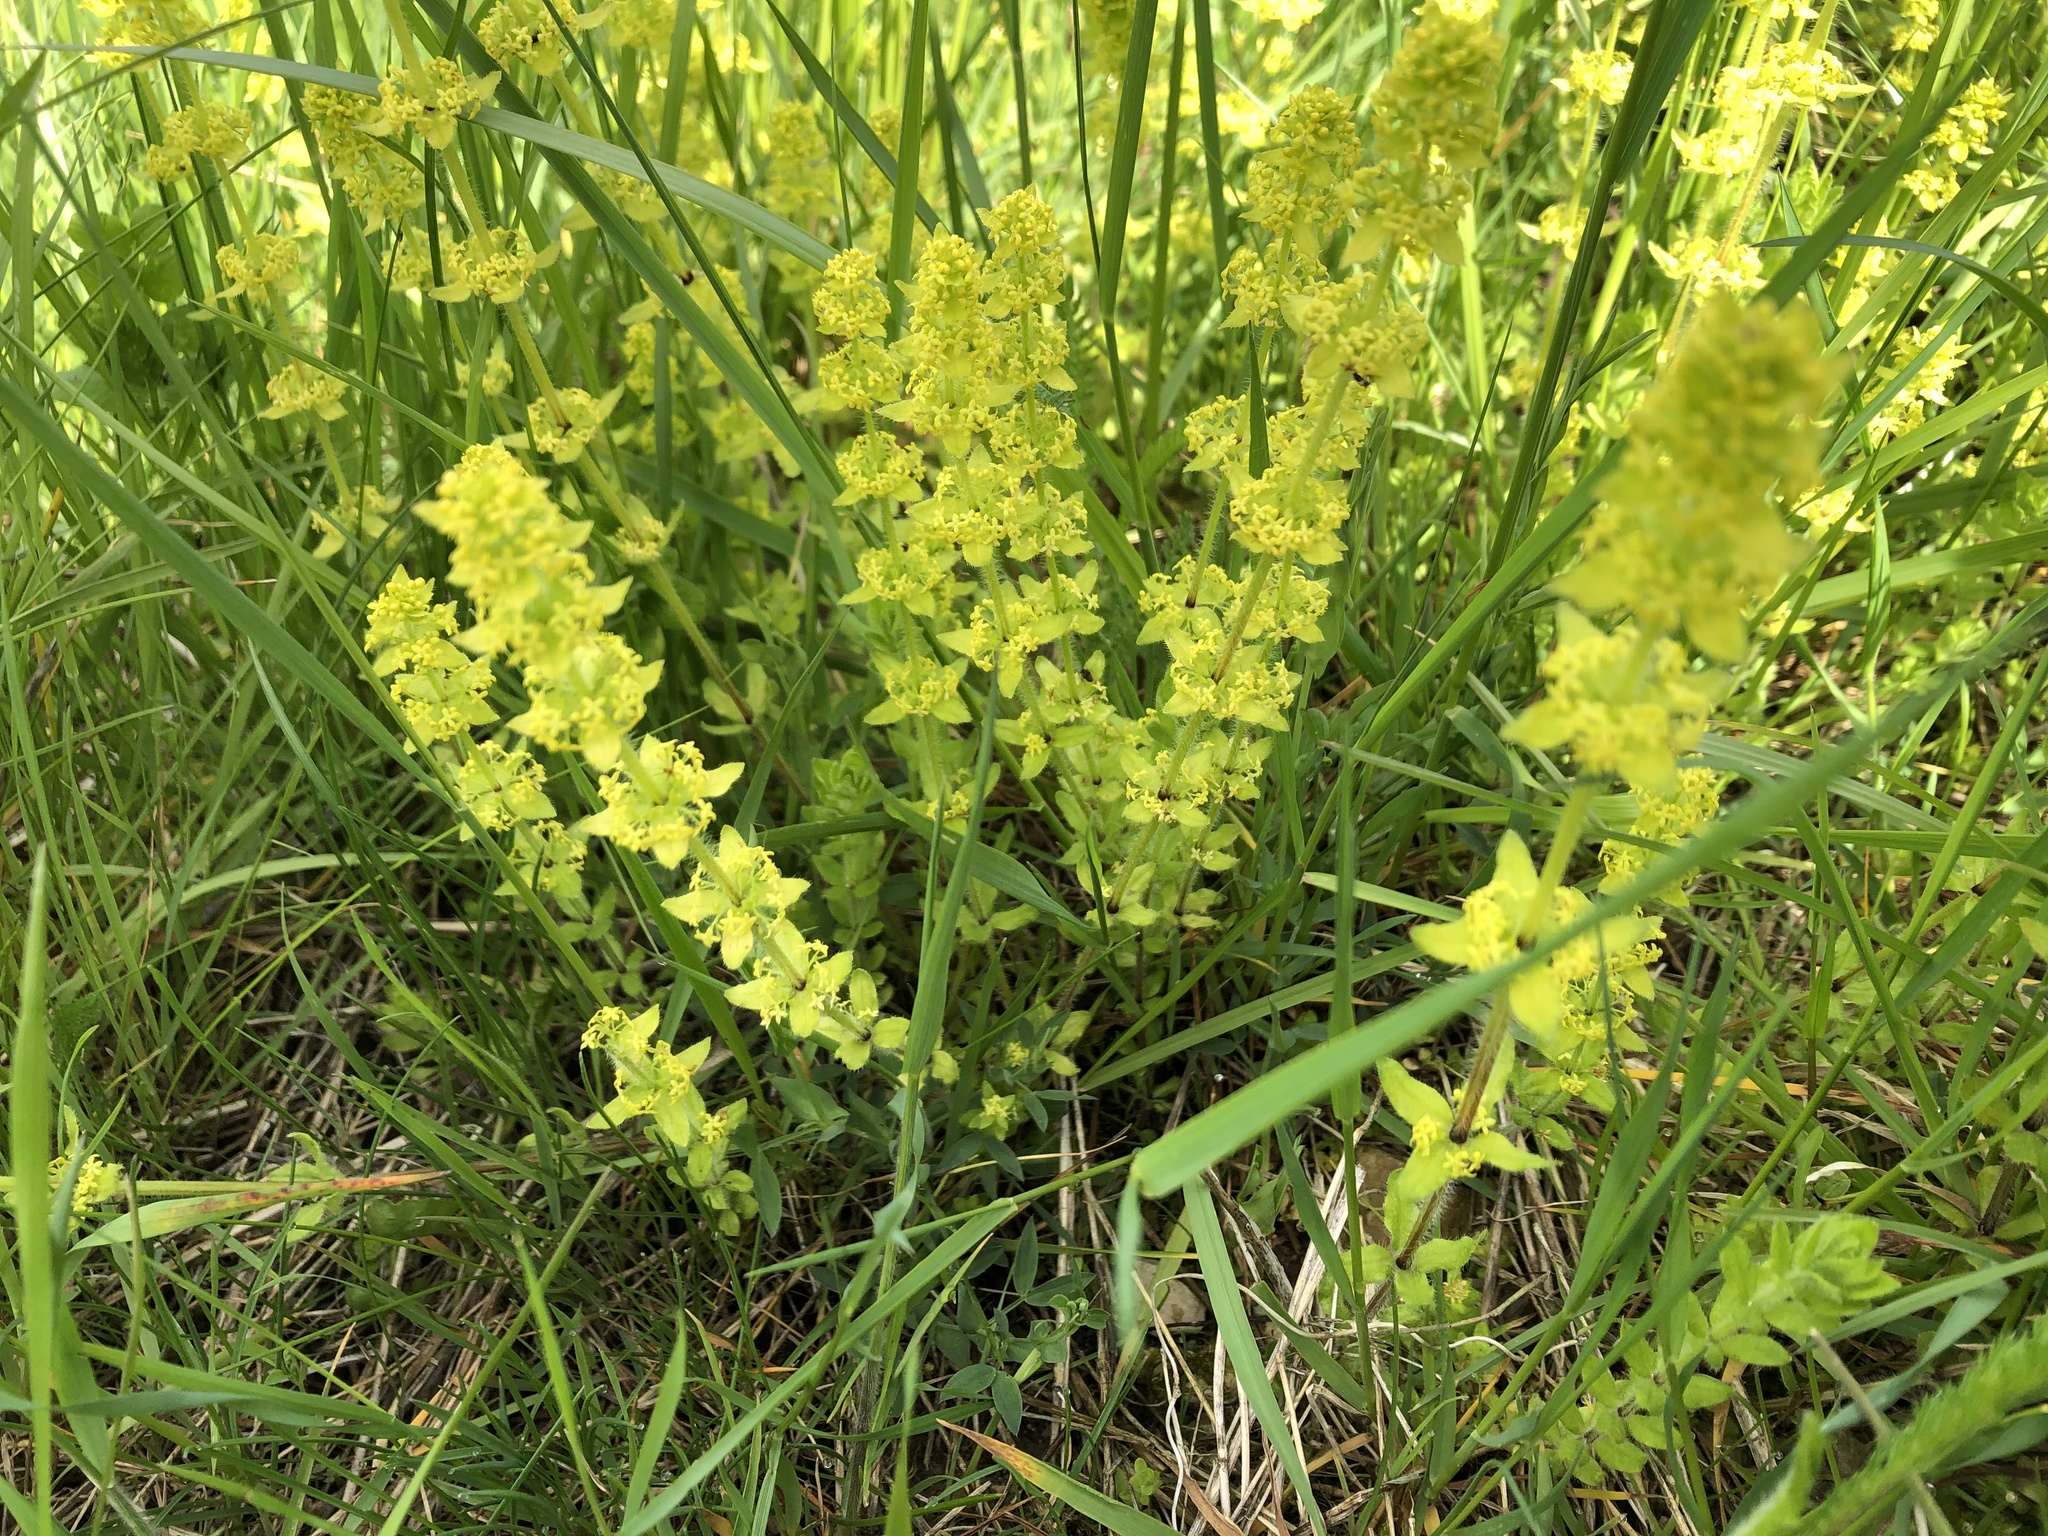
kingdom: Plantae
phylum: Tracheophyta
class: Magnoliopsida
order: Gentianales
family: Rubiaceae
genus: Cruciata
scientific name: Cruciata laevipes
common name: Crosswort
